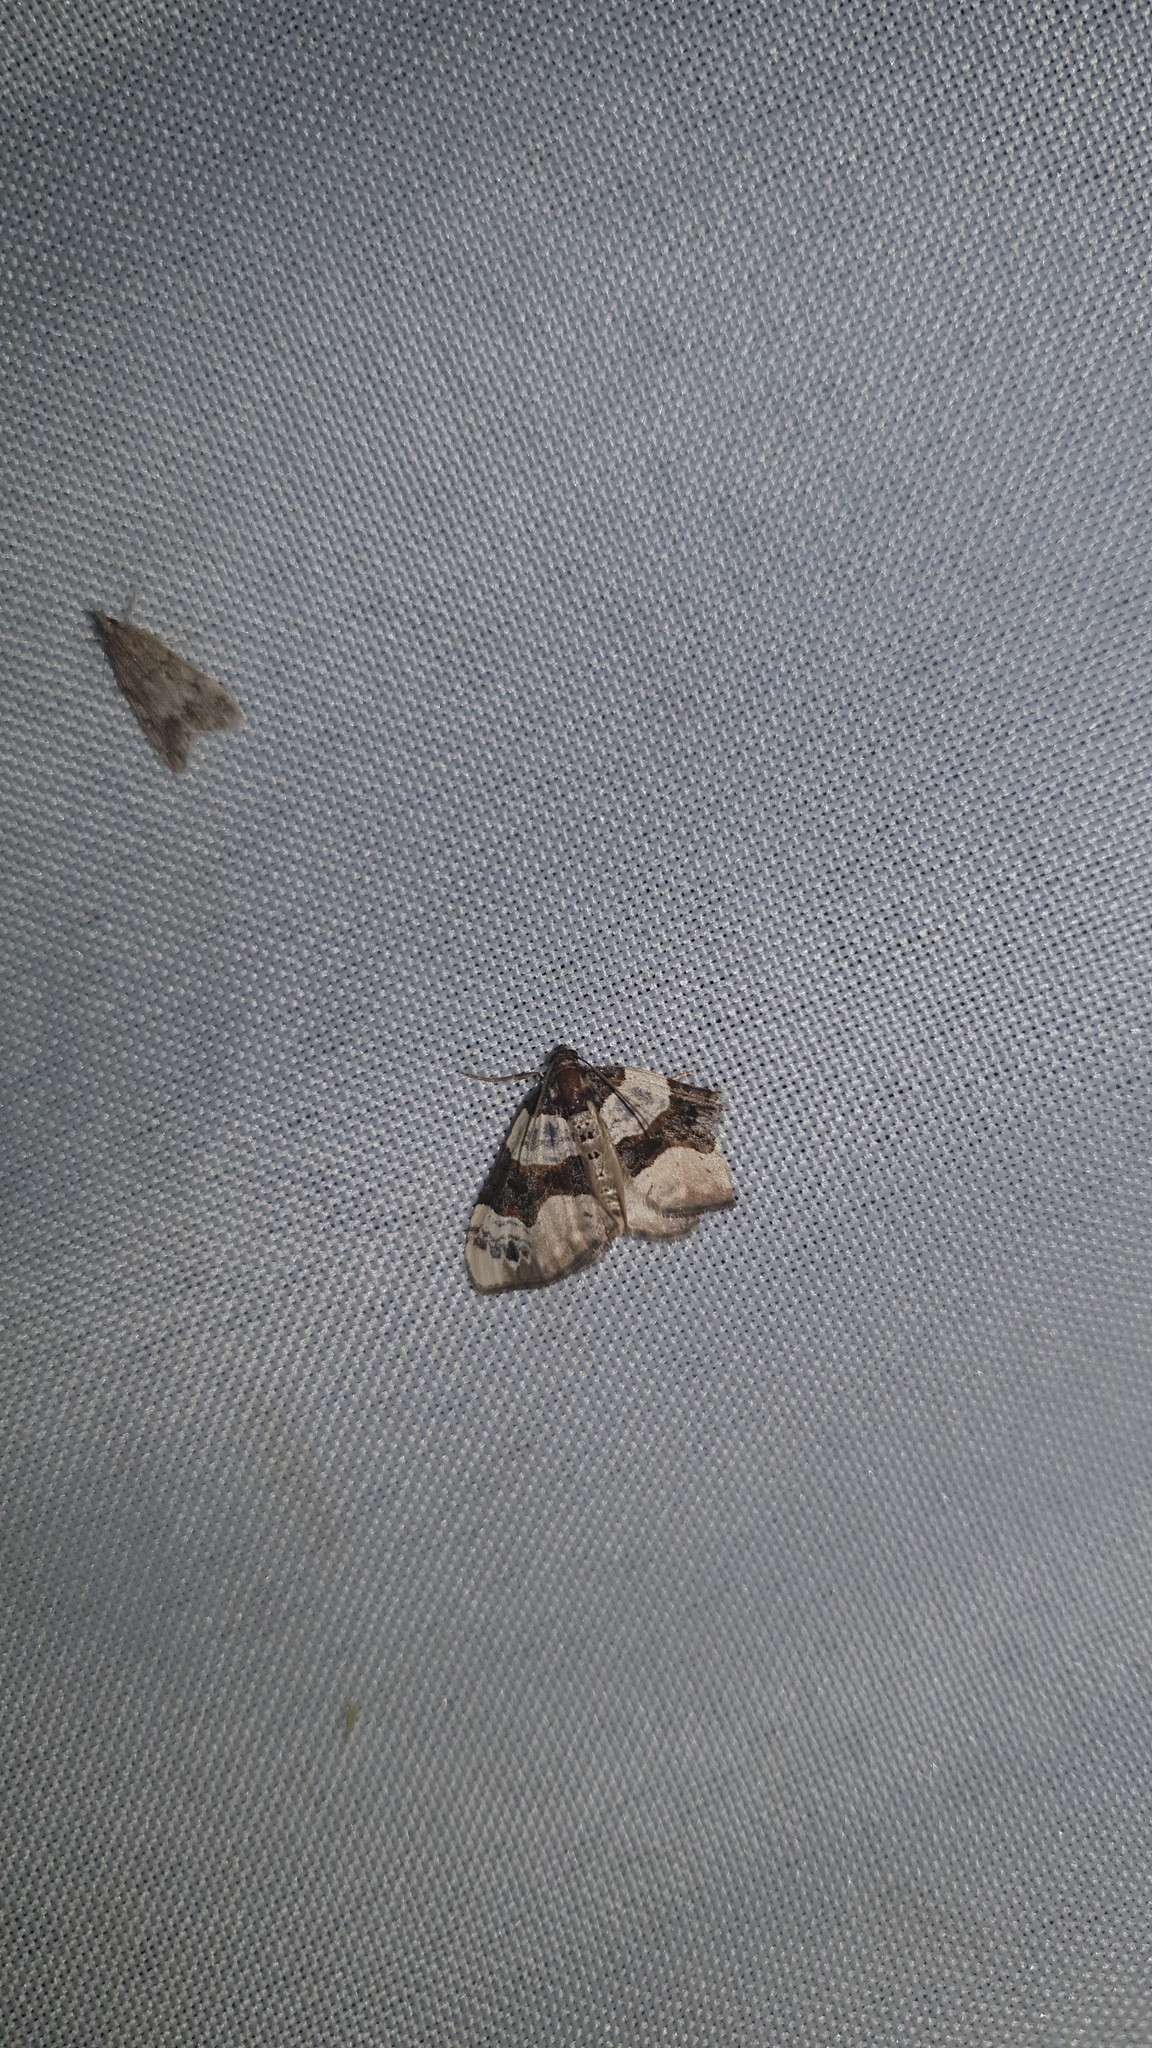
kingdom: Animalia
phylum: Arthropoda
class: Insecta
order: Lepidoptera
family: Geometridae
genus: Cosmorhoe
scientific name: Cosmorhoe ocellata
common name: Purple bar
